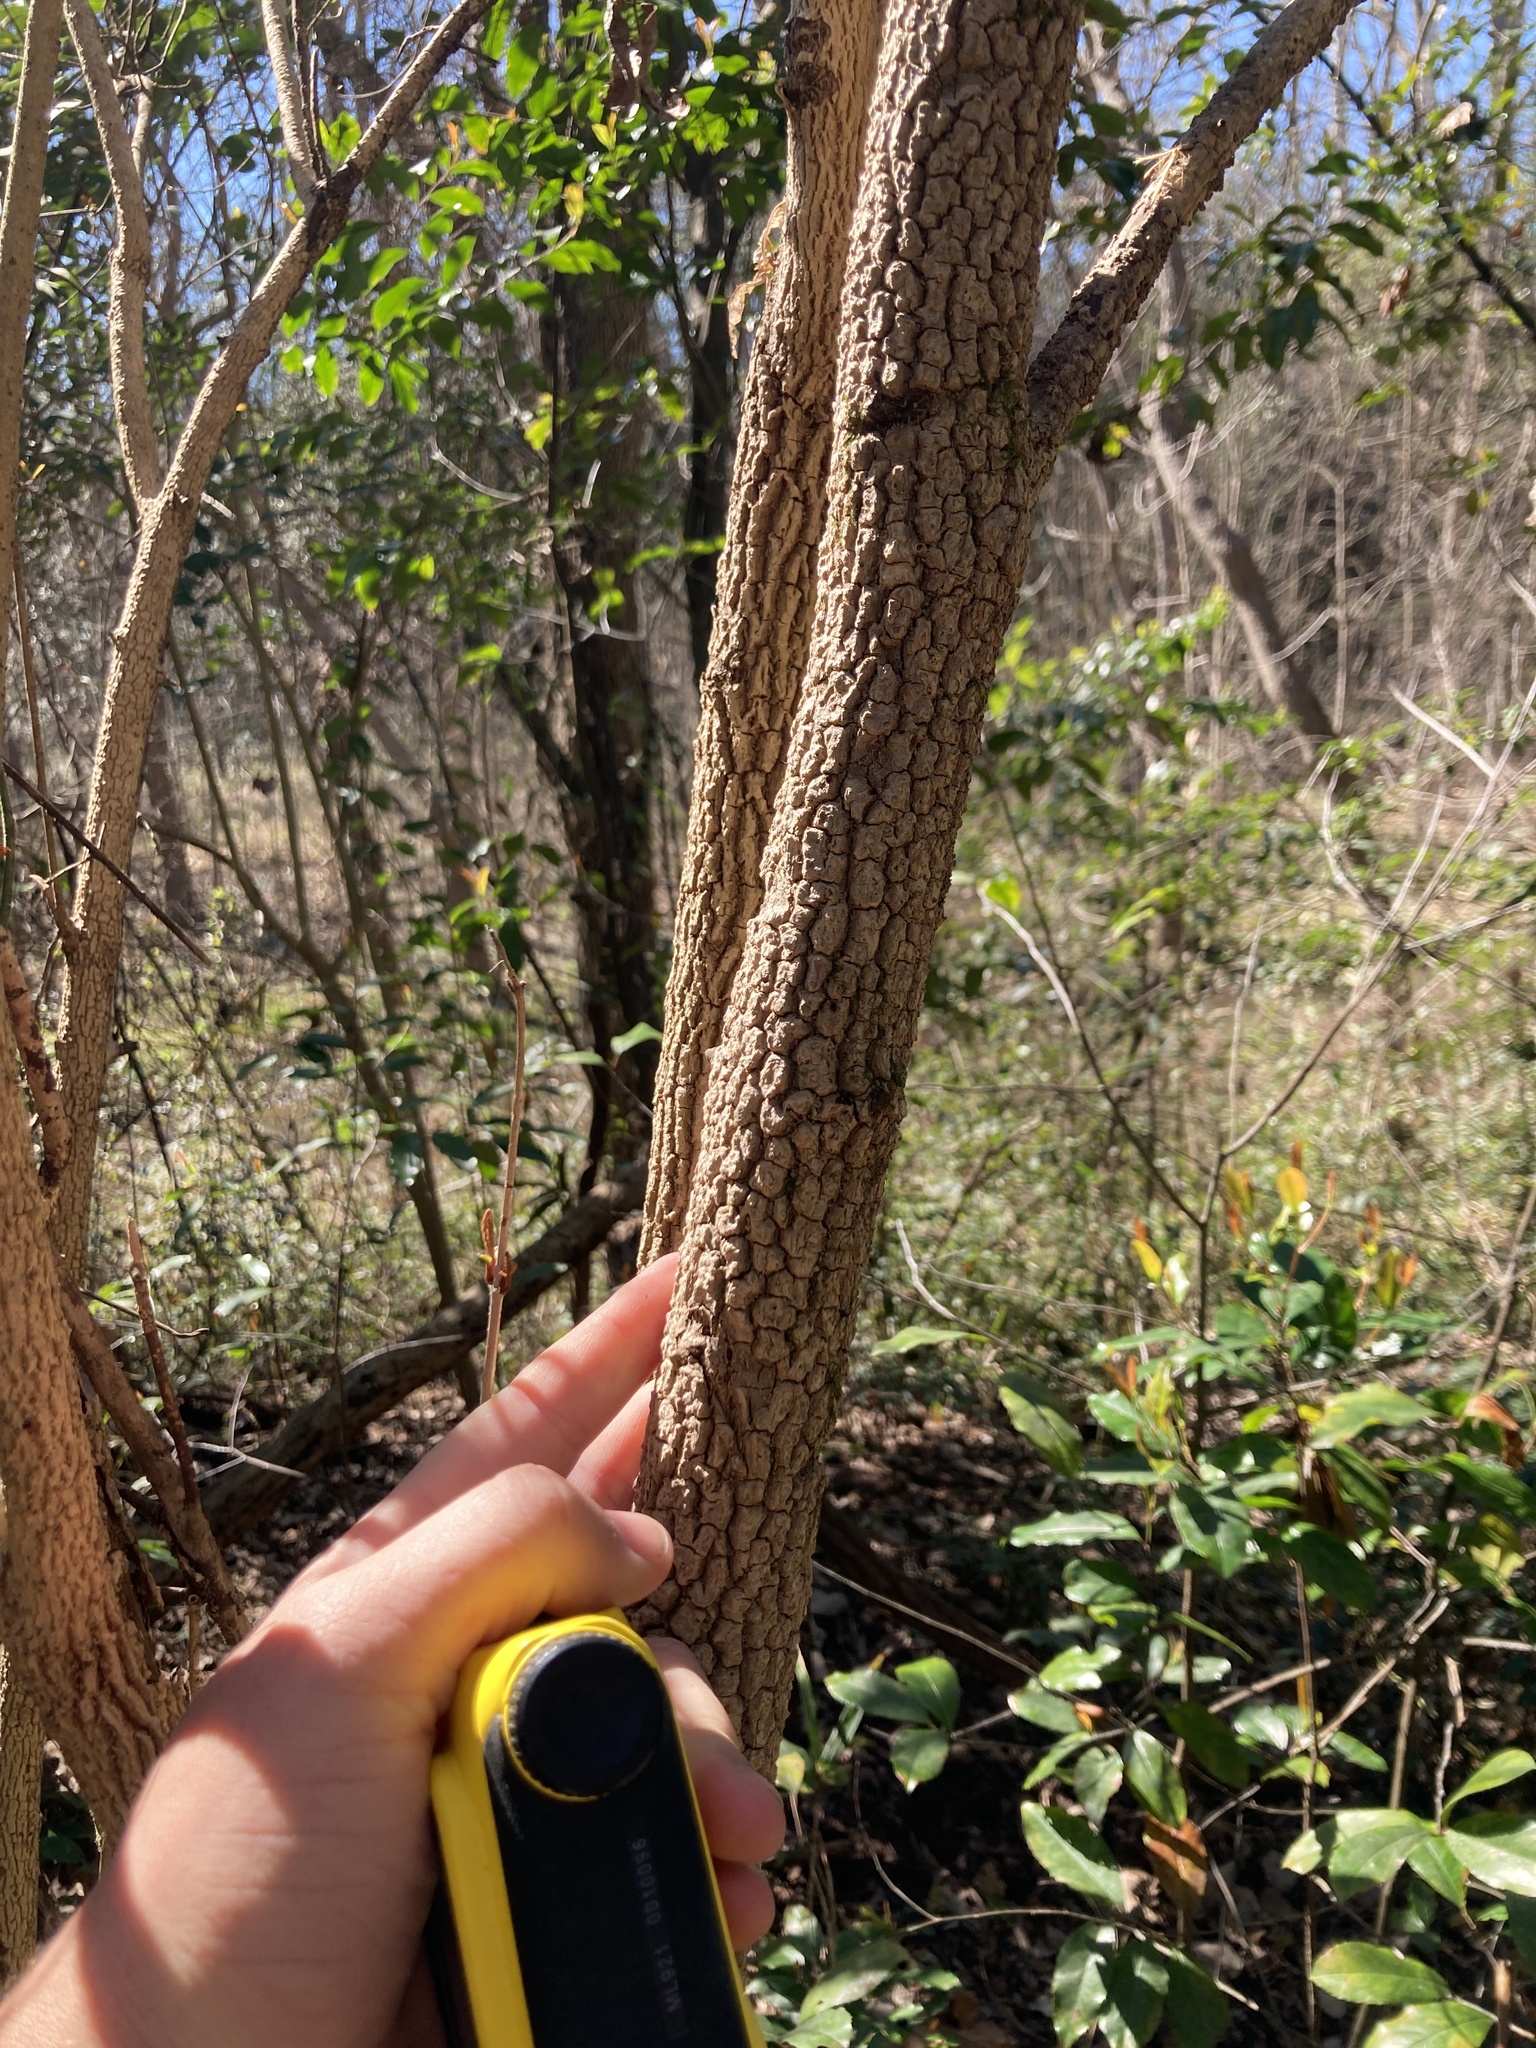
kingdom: Plantae
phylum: Tracheophyta
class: Magnoliopsida
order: Dipsacales
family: Viburnaceae
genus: Viburnum
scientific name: Viburnum rufidulum
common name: Blue haw
